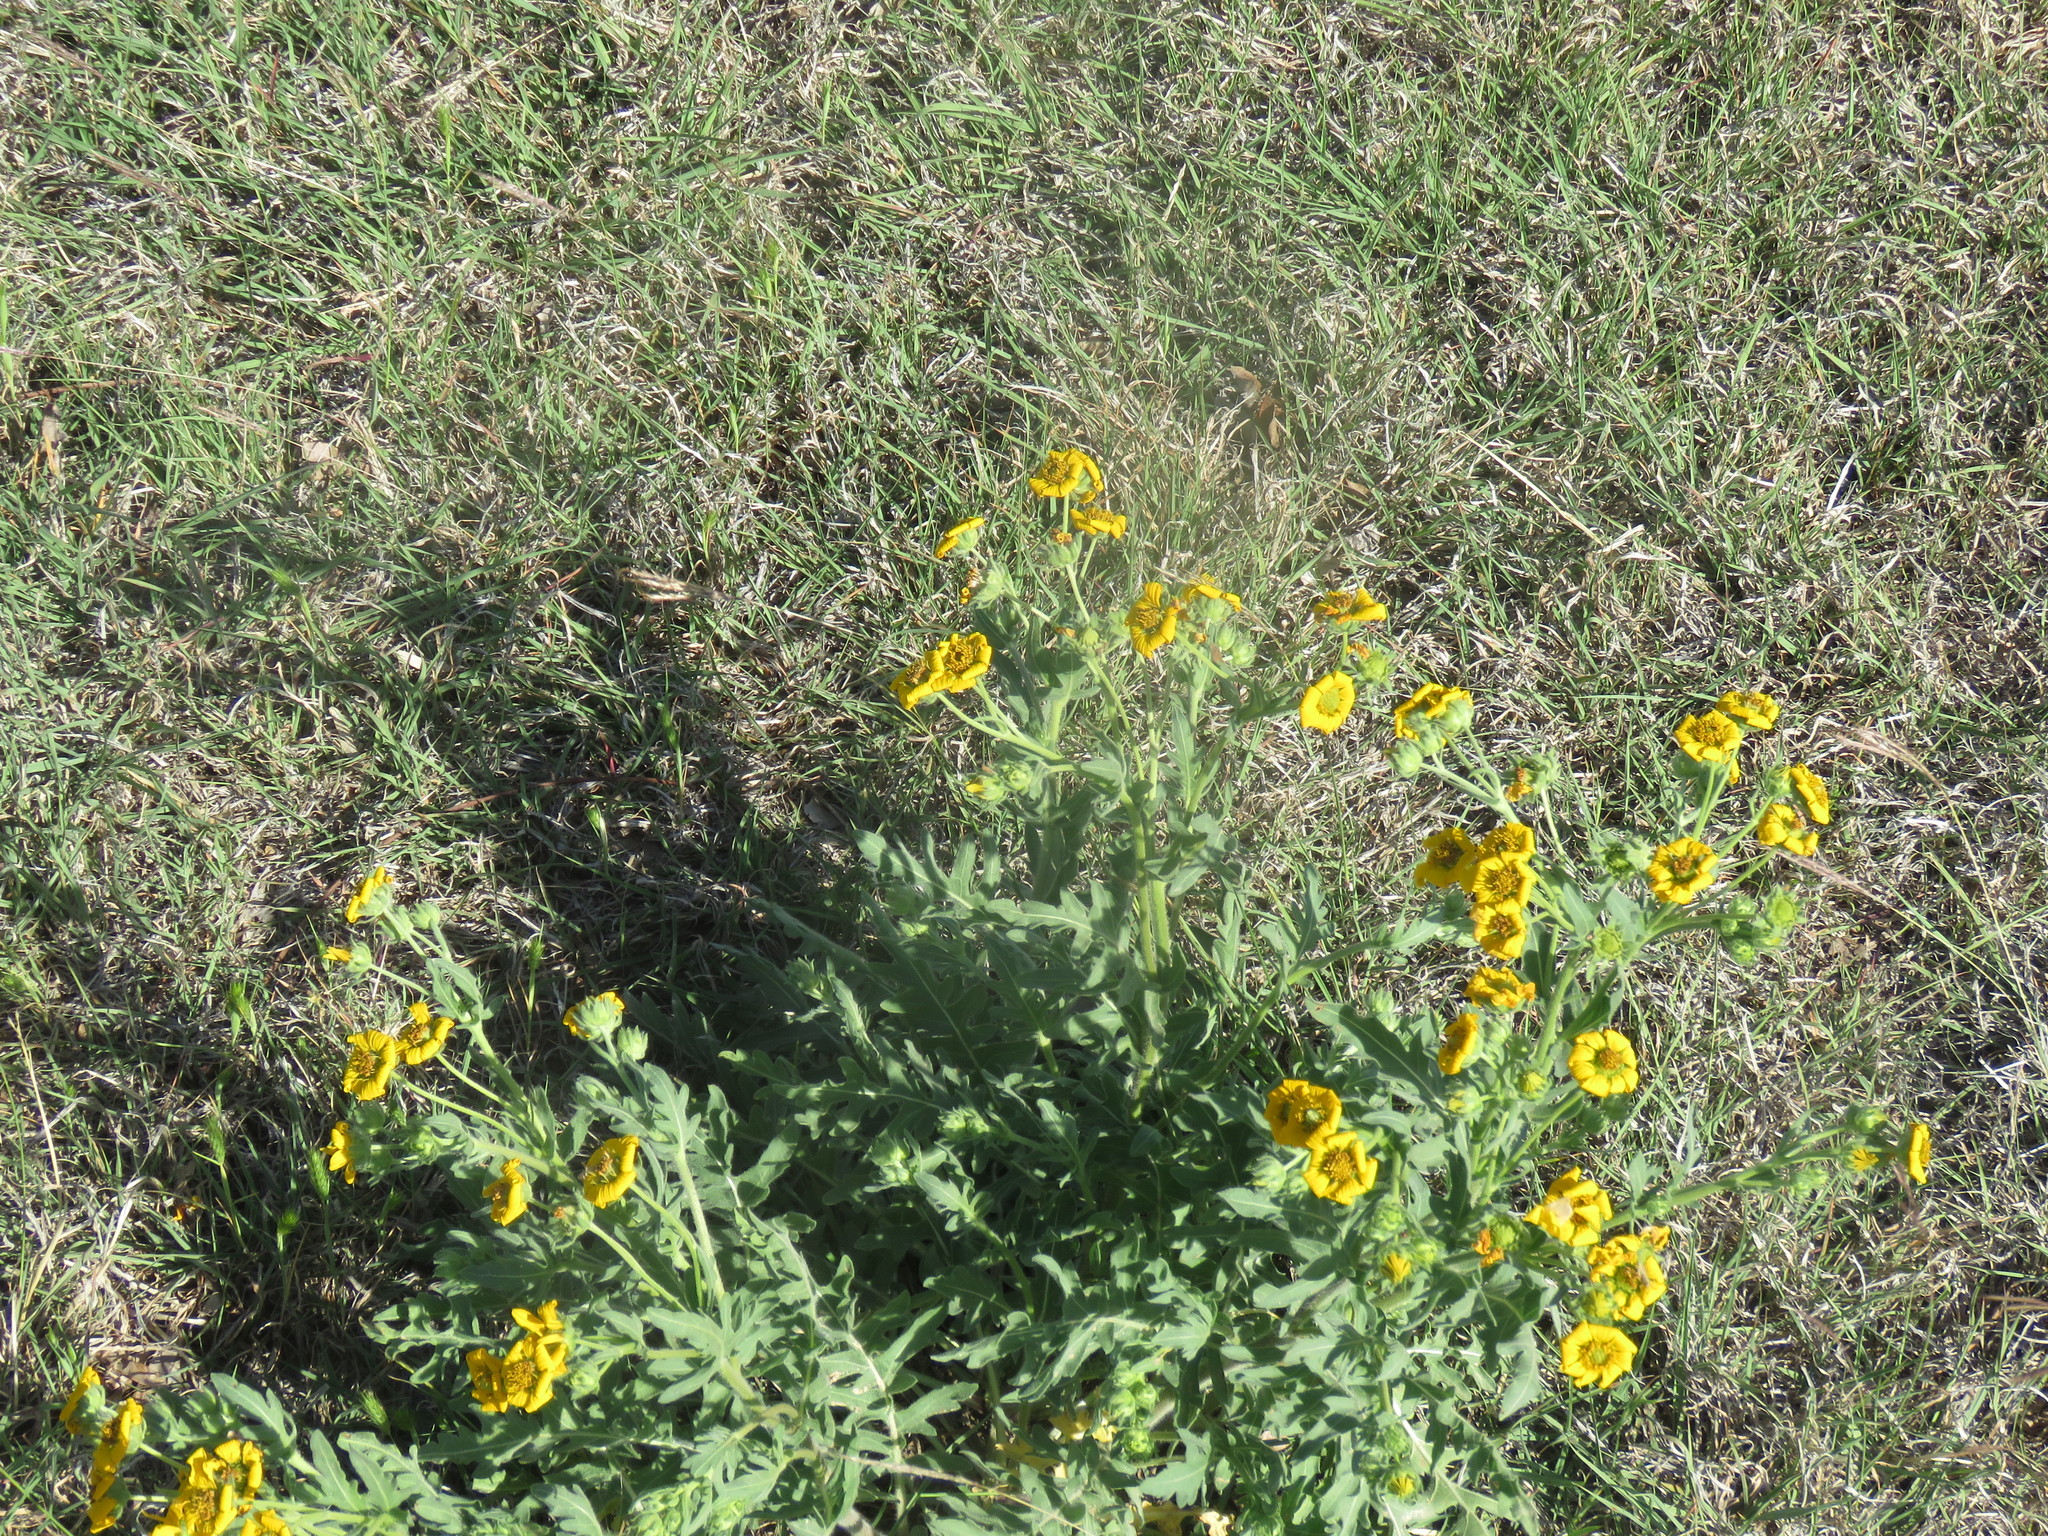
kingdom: Plantae
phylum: Tracheophyta
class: Magnoliopsida
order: Asterales
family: Asteraceae
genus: Engelmannia
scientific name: Engelmannia peristenia
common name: Engelmann's daisy
